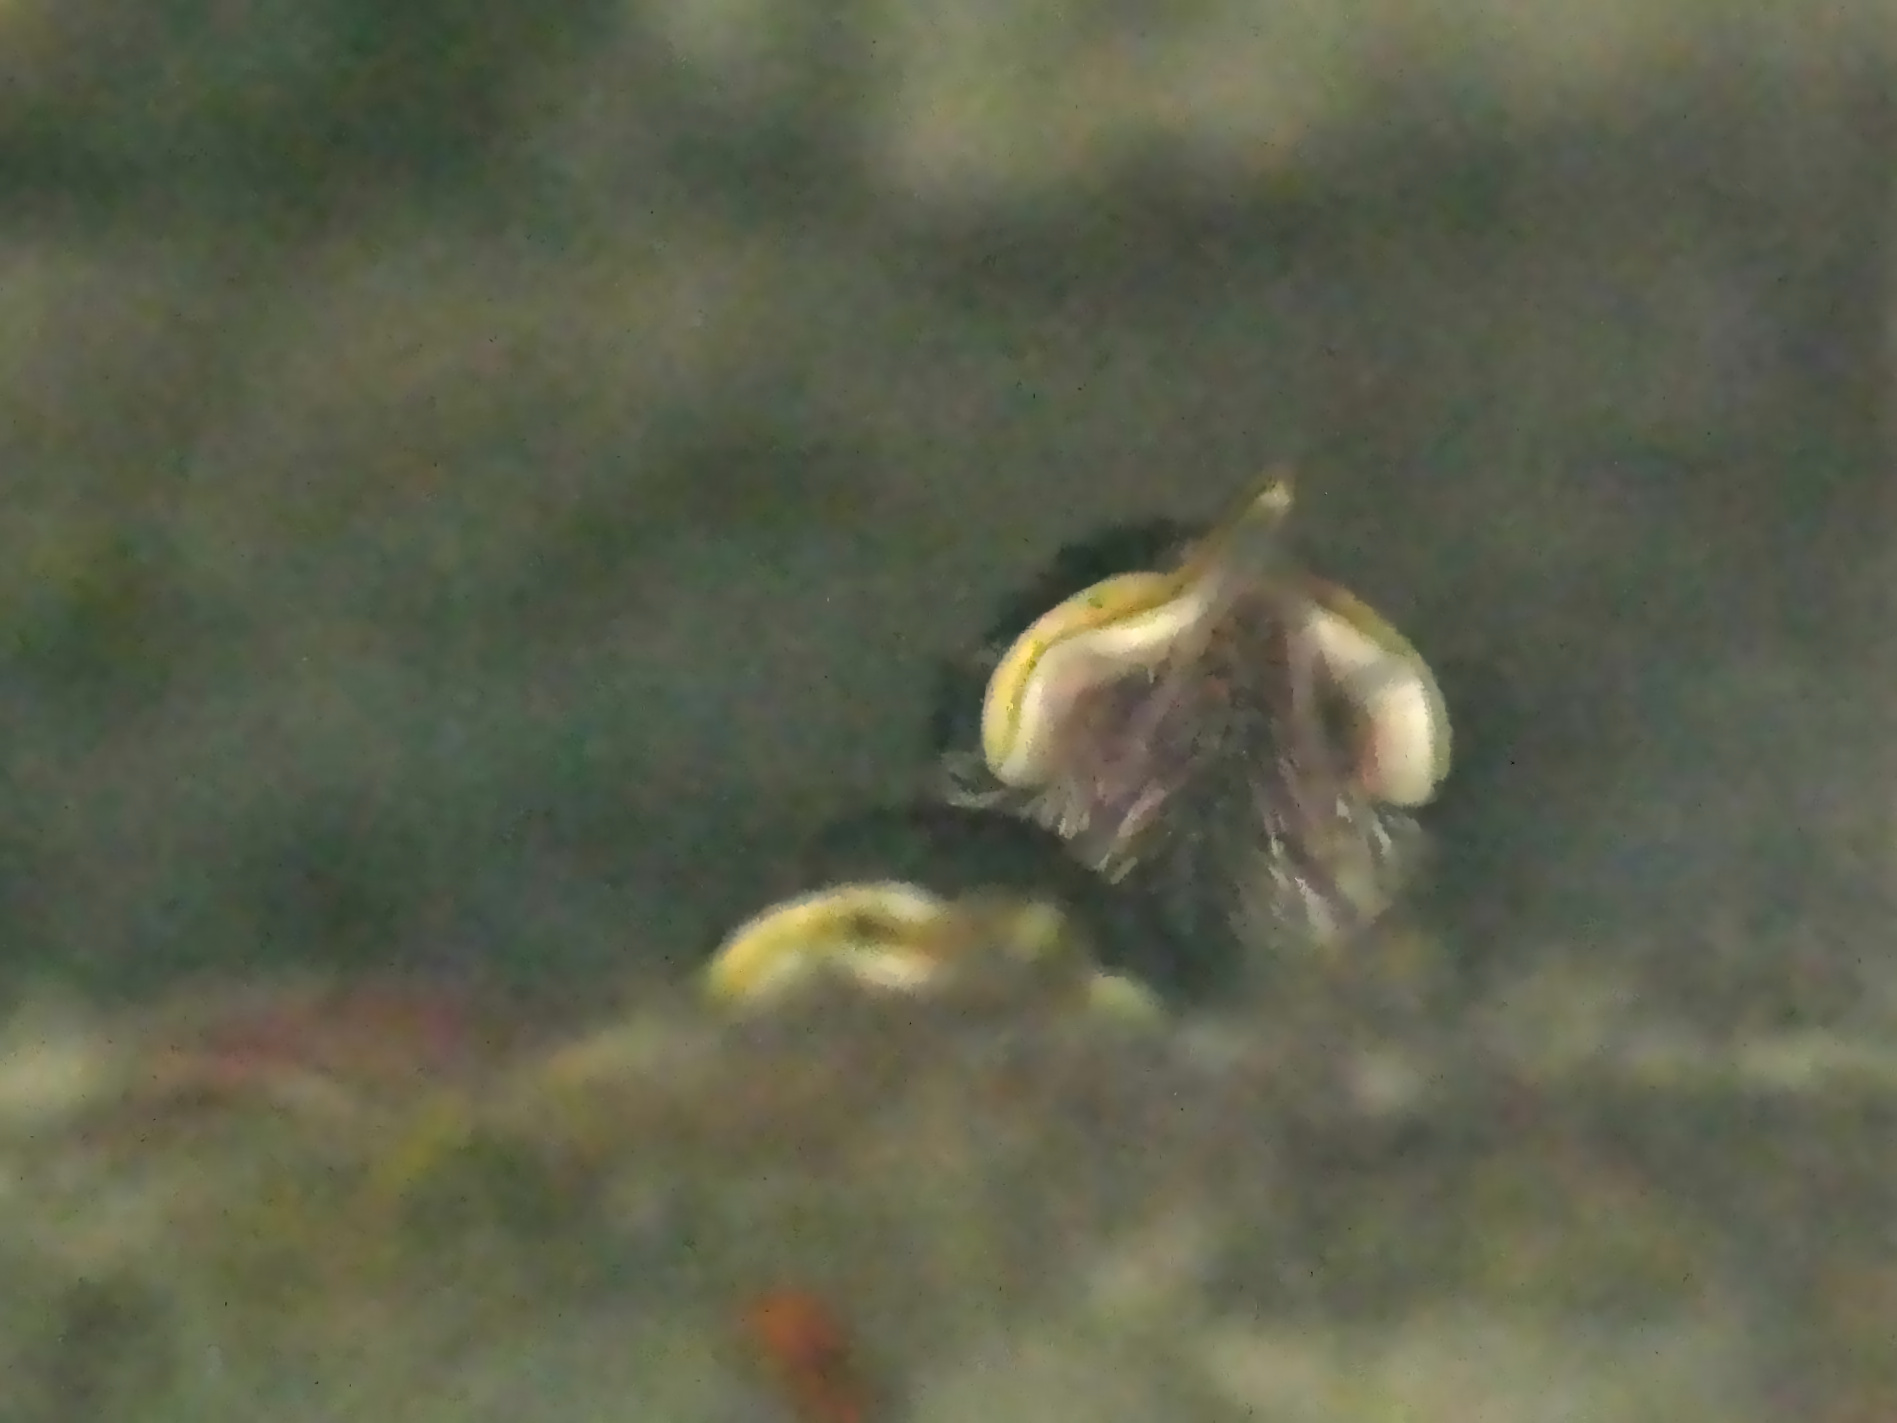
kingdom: Animalia
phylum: Chordata
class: Aves
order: Passeriformes
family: Paridae
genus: Parus
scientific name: Parus major
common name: Great tit
